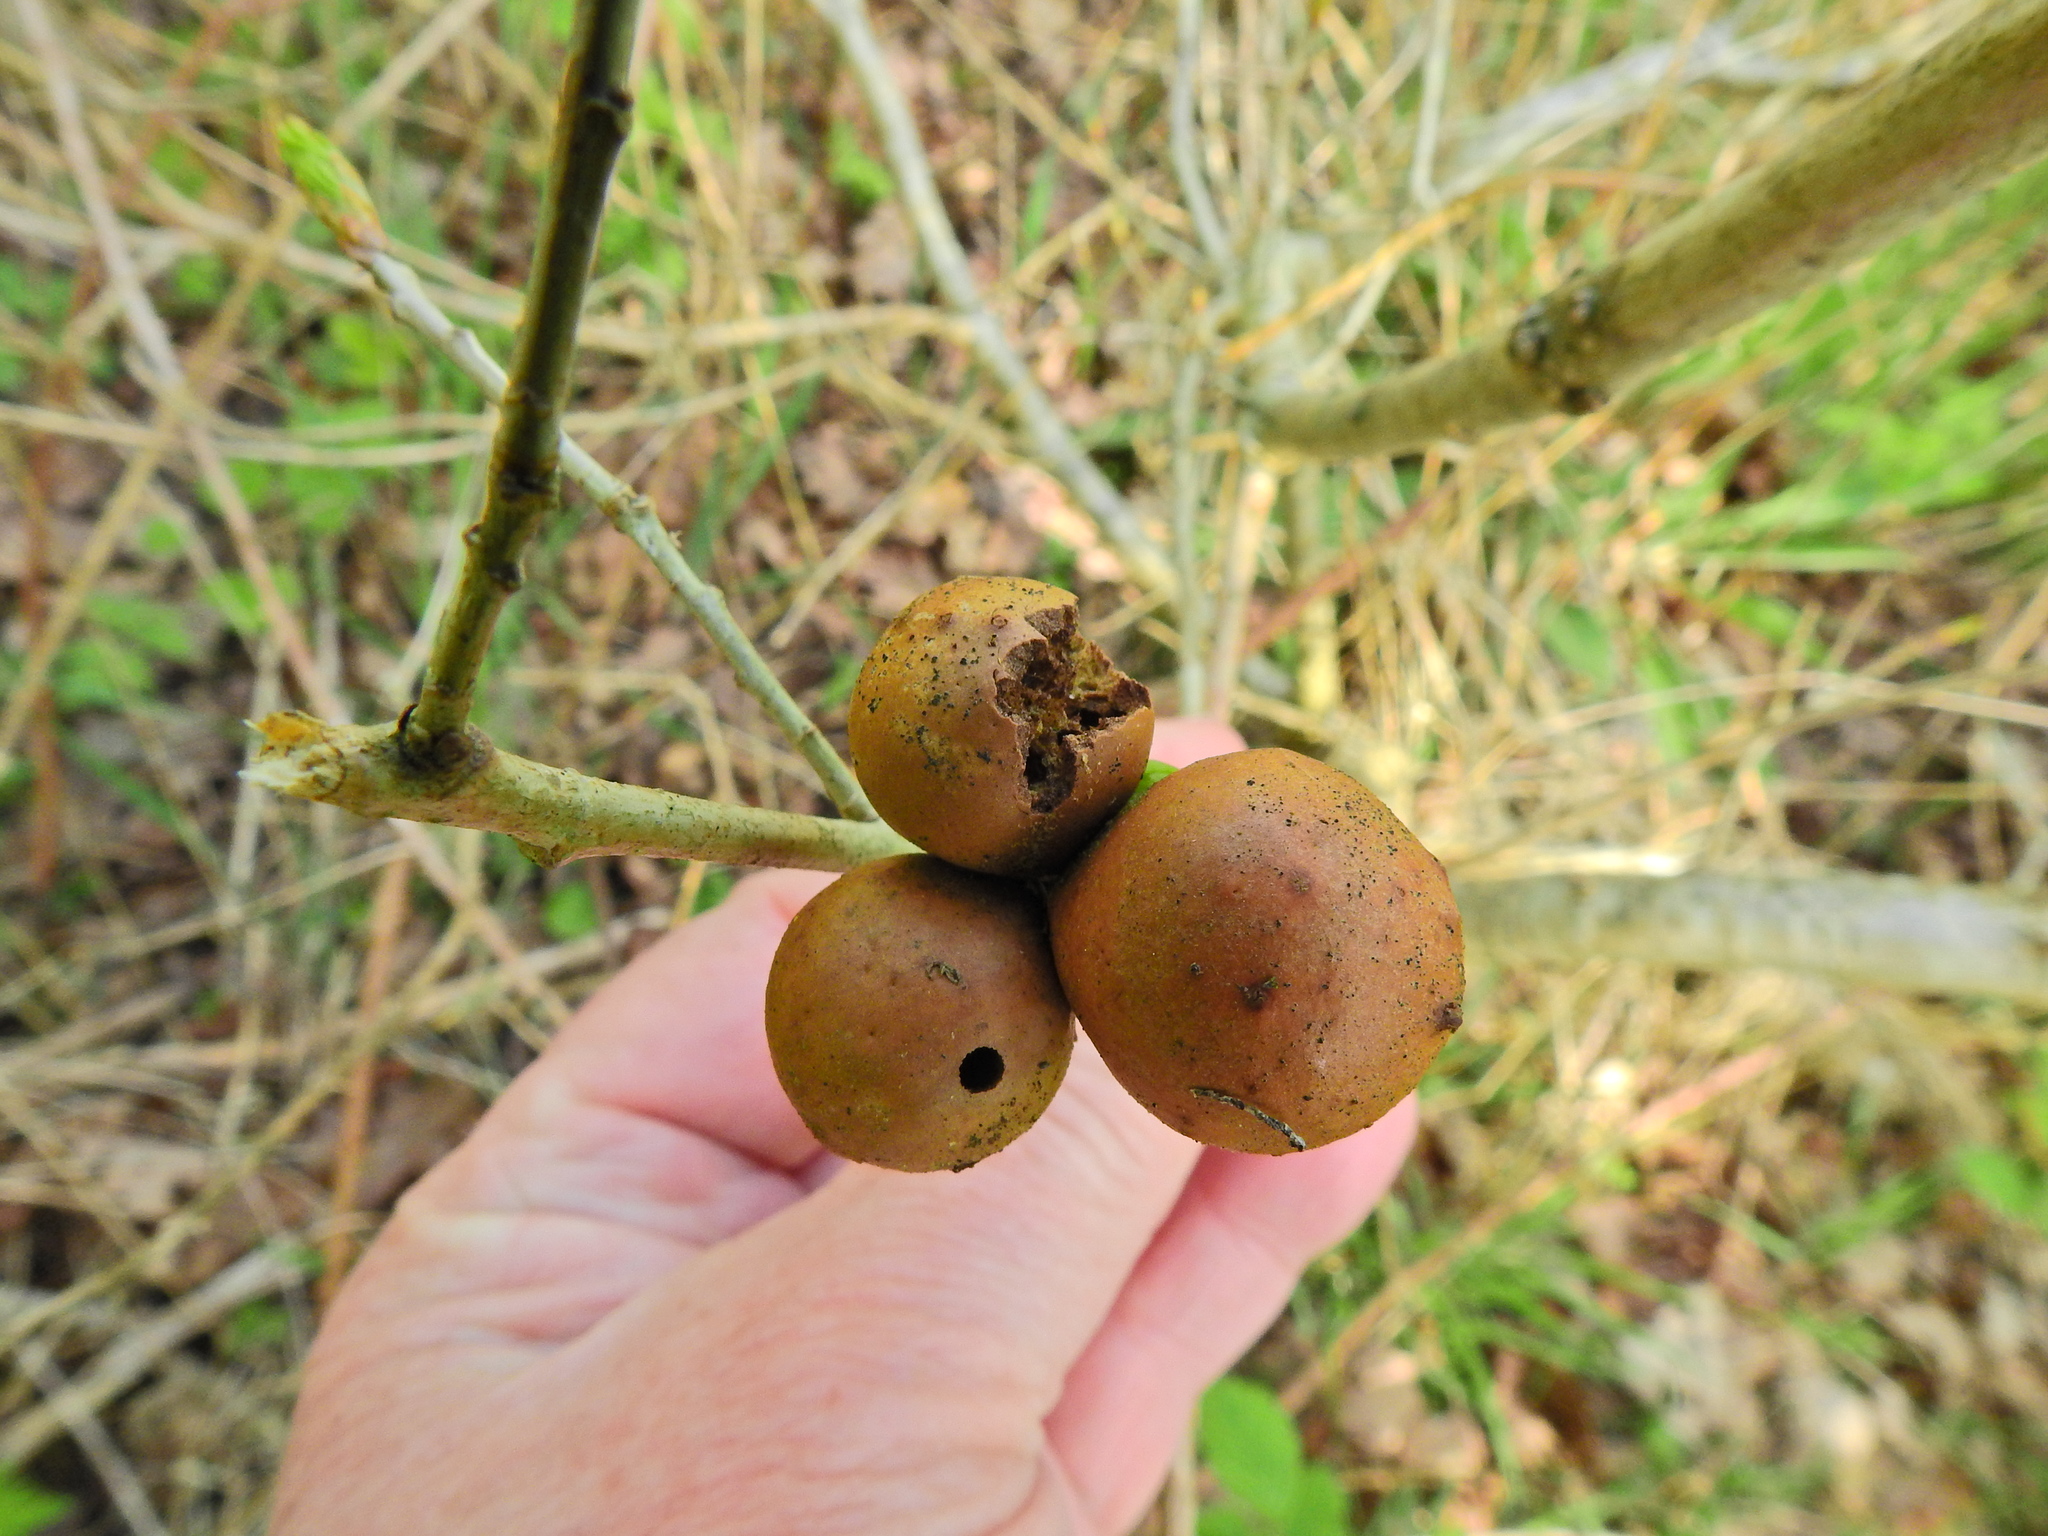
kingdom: Animalia
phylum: Arthropoda
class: Insecta
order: Hymenoptera
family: Cynipidae
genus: Andricus
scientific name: Andricus kollari
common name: Marble gall
